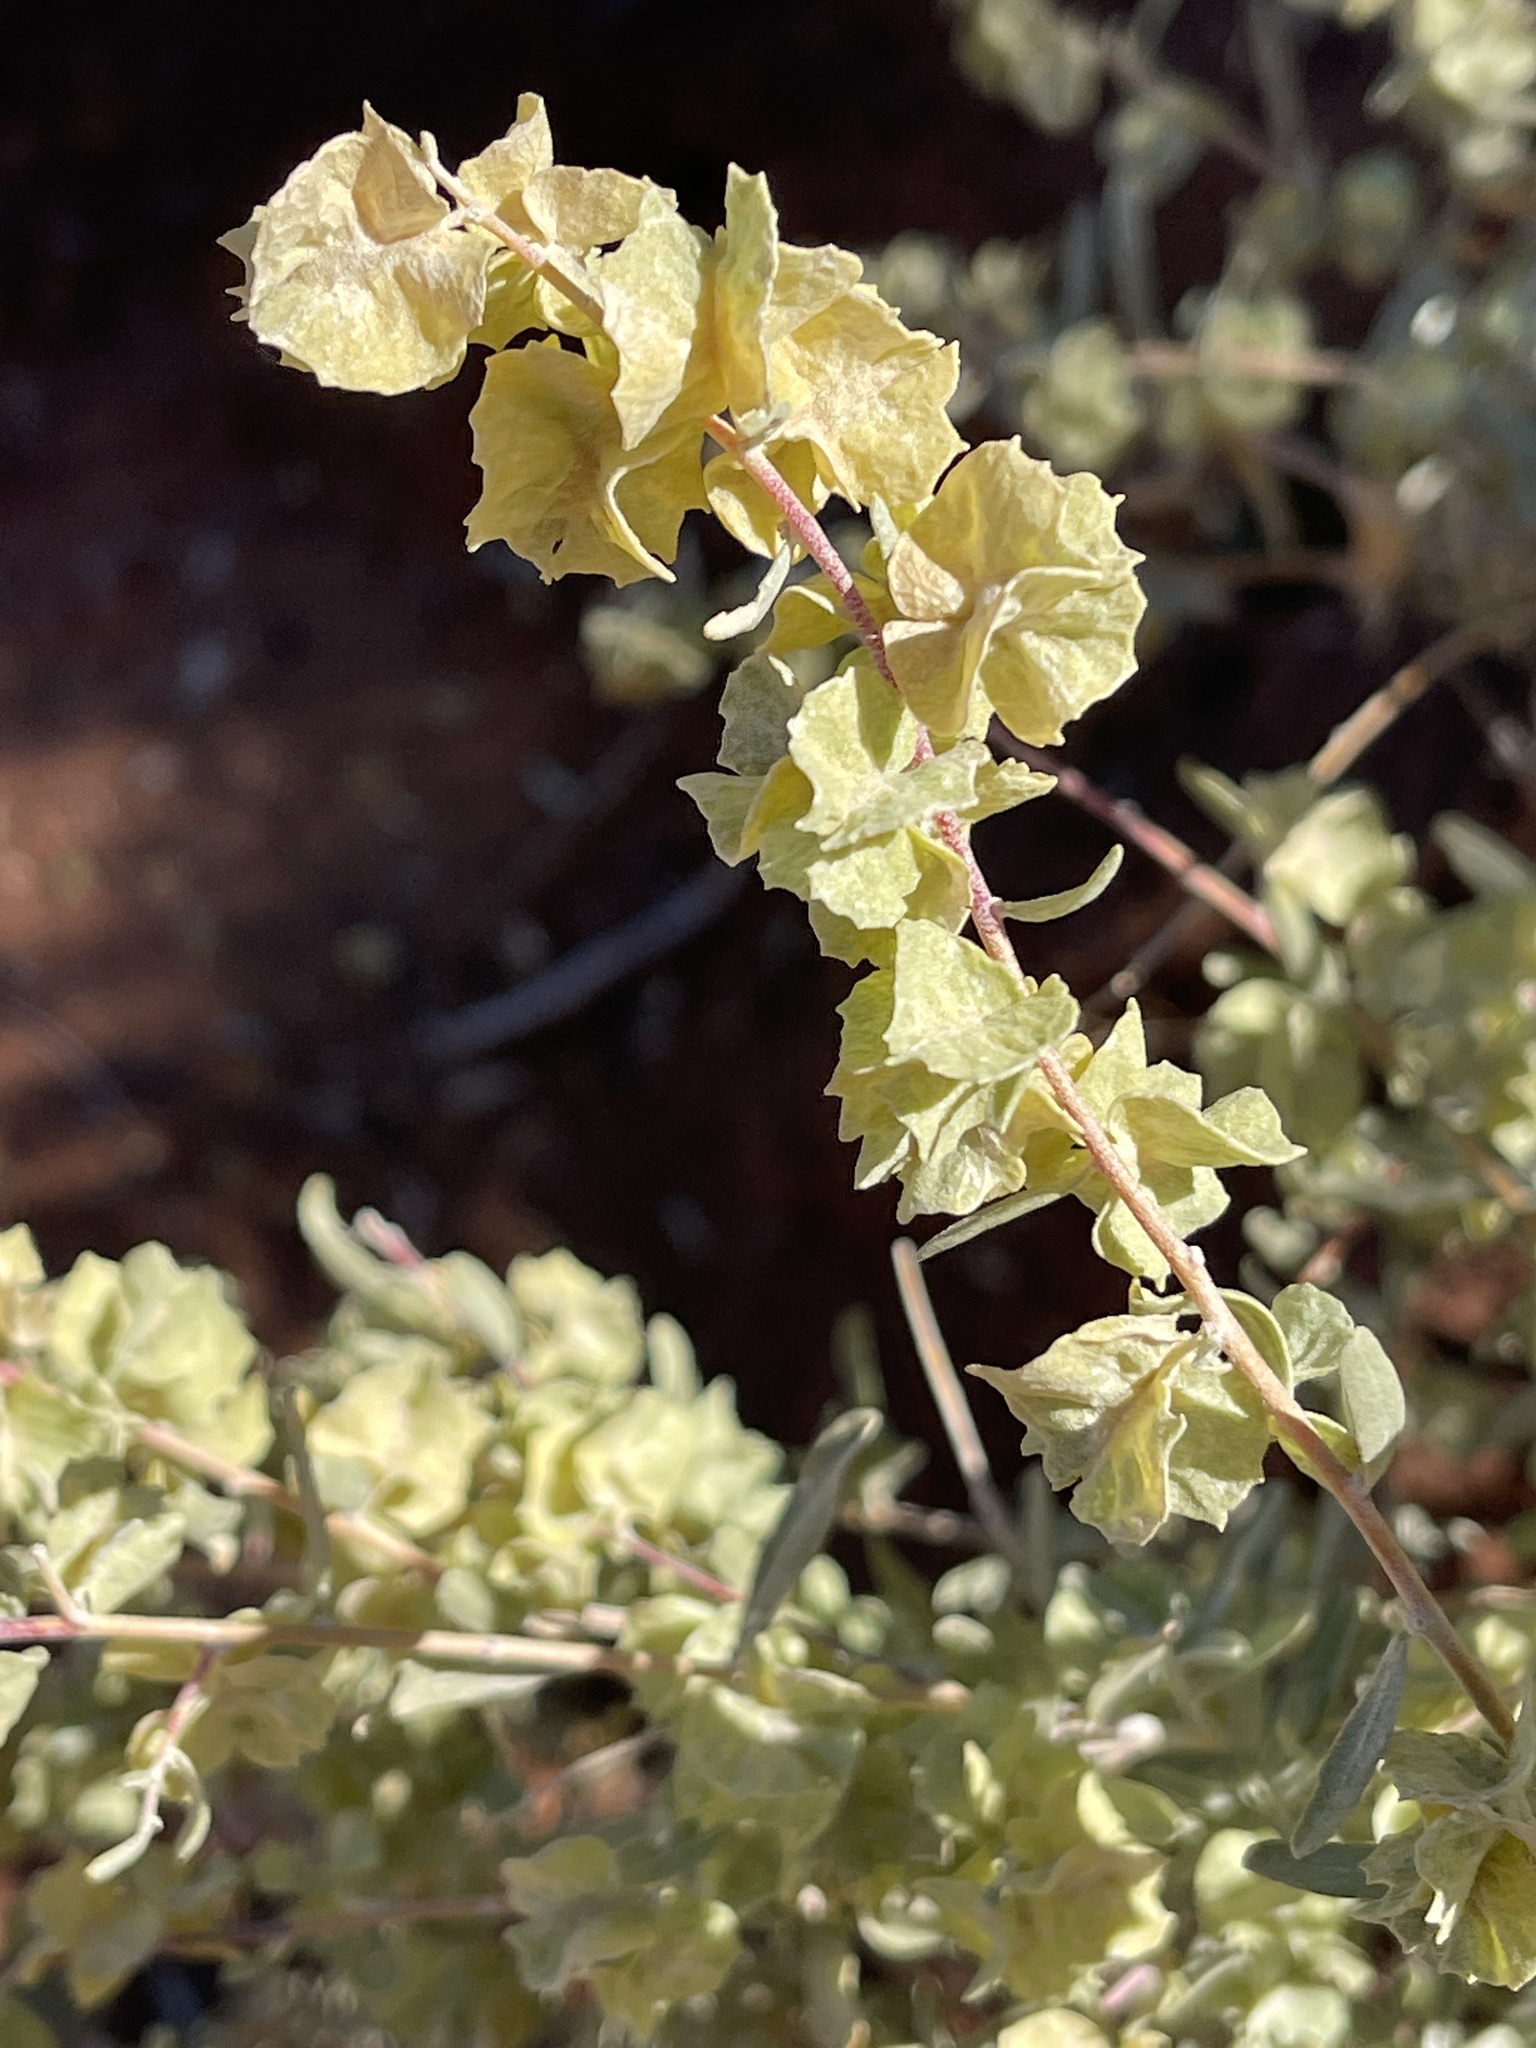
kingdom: Plantae
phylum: Tracheophyta
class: Magnoliopsida
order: Caryophyllales
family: Amaranthaceae
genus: Atriplex
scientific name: Atriplex canescens
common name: Four-wing saltbush
